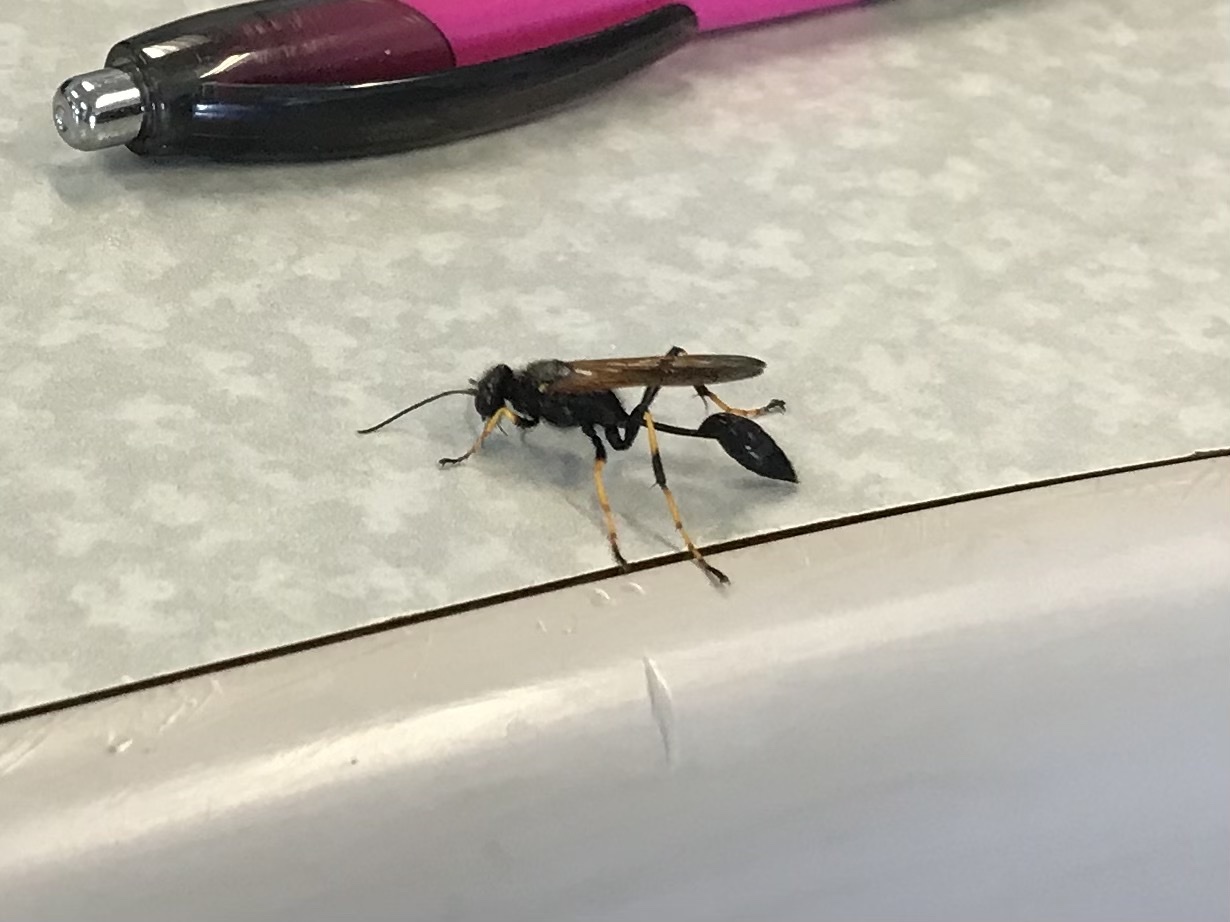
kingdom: Animalia
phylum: Arthropoda
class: Insecta
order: Hymenoptera
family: Sphecidae
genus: Sceliphron
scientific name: Sceliphron caementarium
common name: Mud dauber
